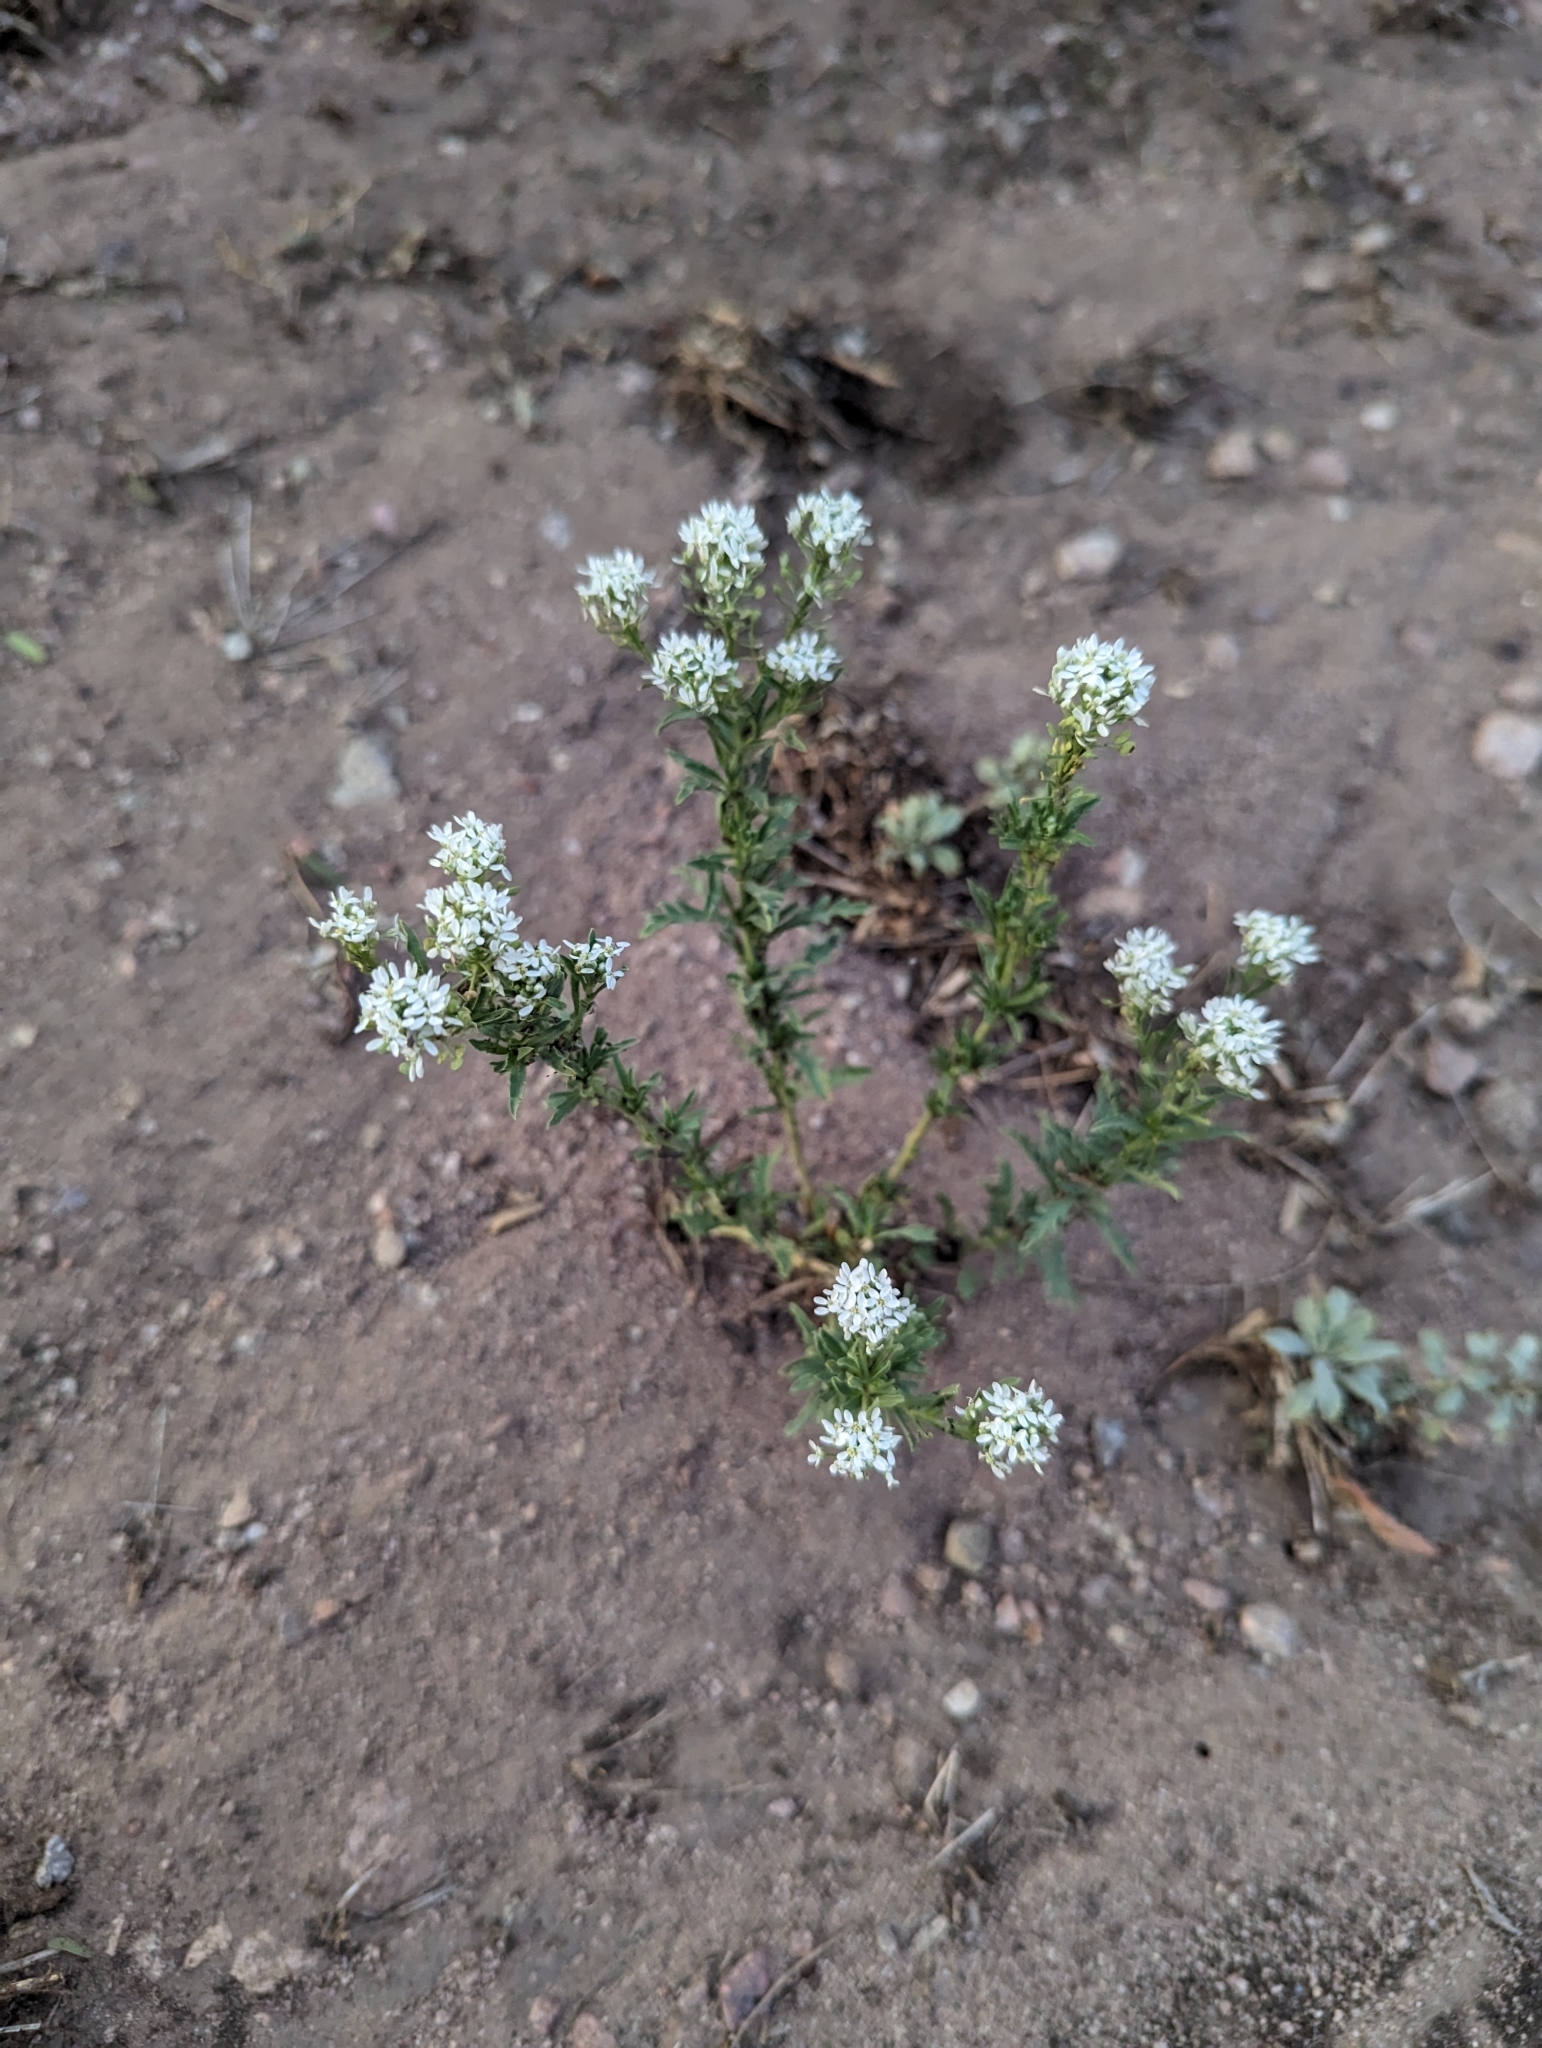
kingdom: Plantae
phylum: Tracheophyta
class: Magnoliopsida
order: Brassicales
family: Brassicaceae
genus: Lepidium
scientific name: Lepidium thurberi
